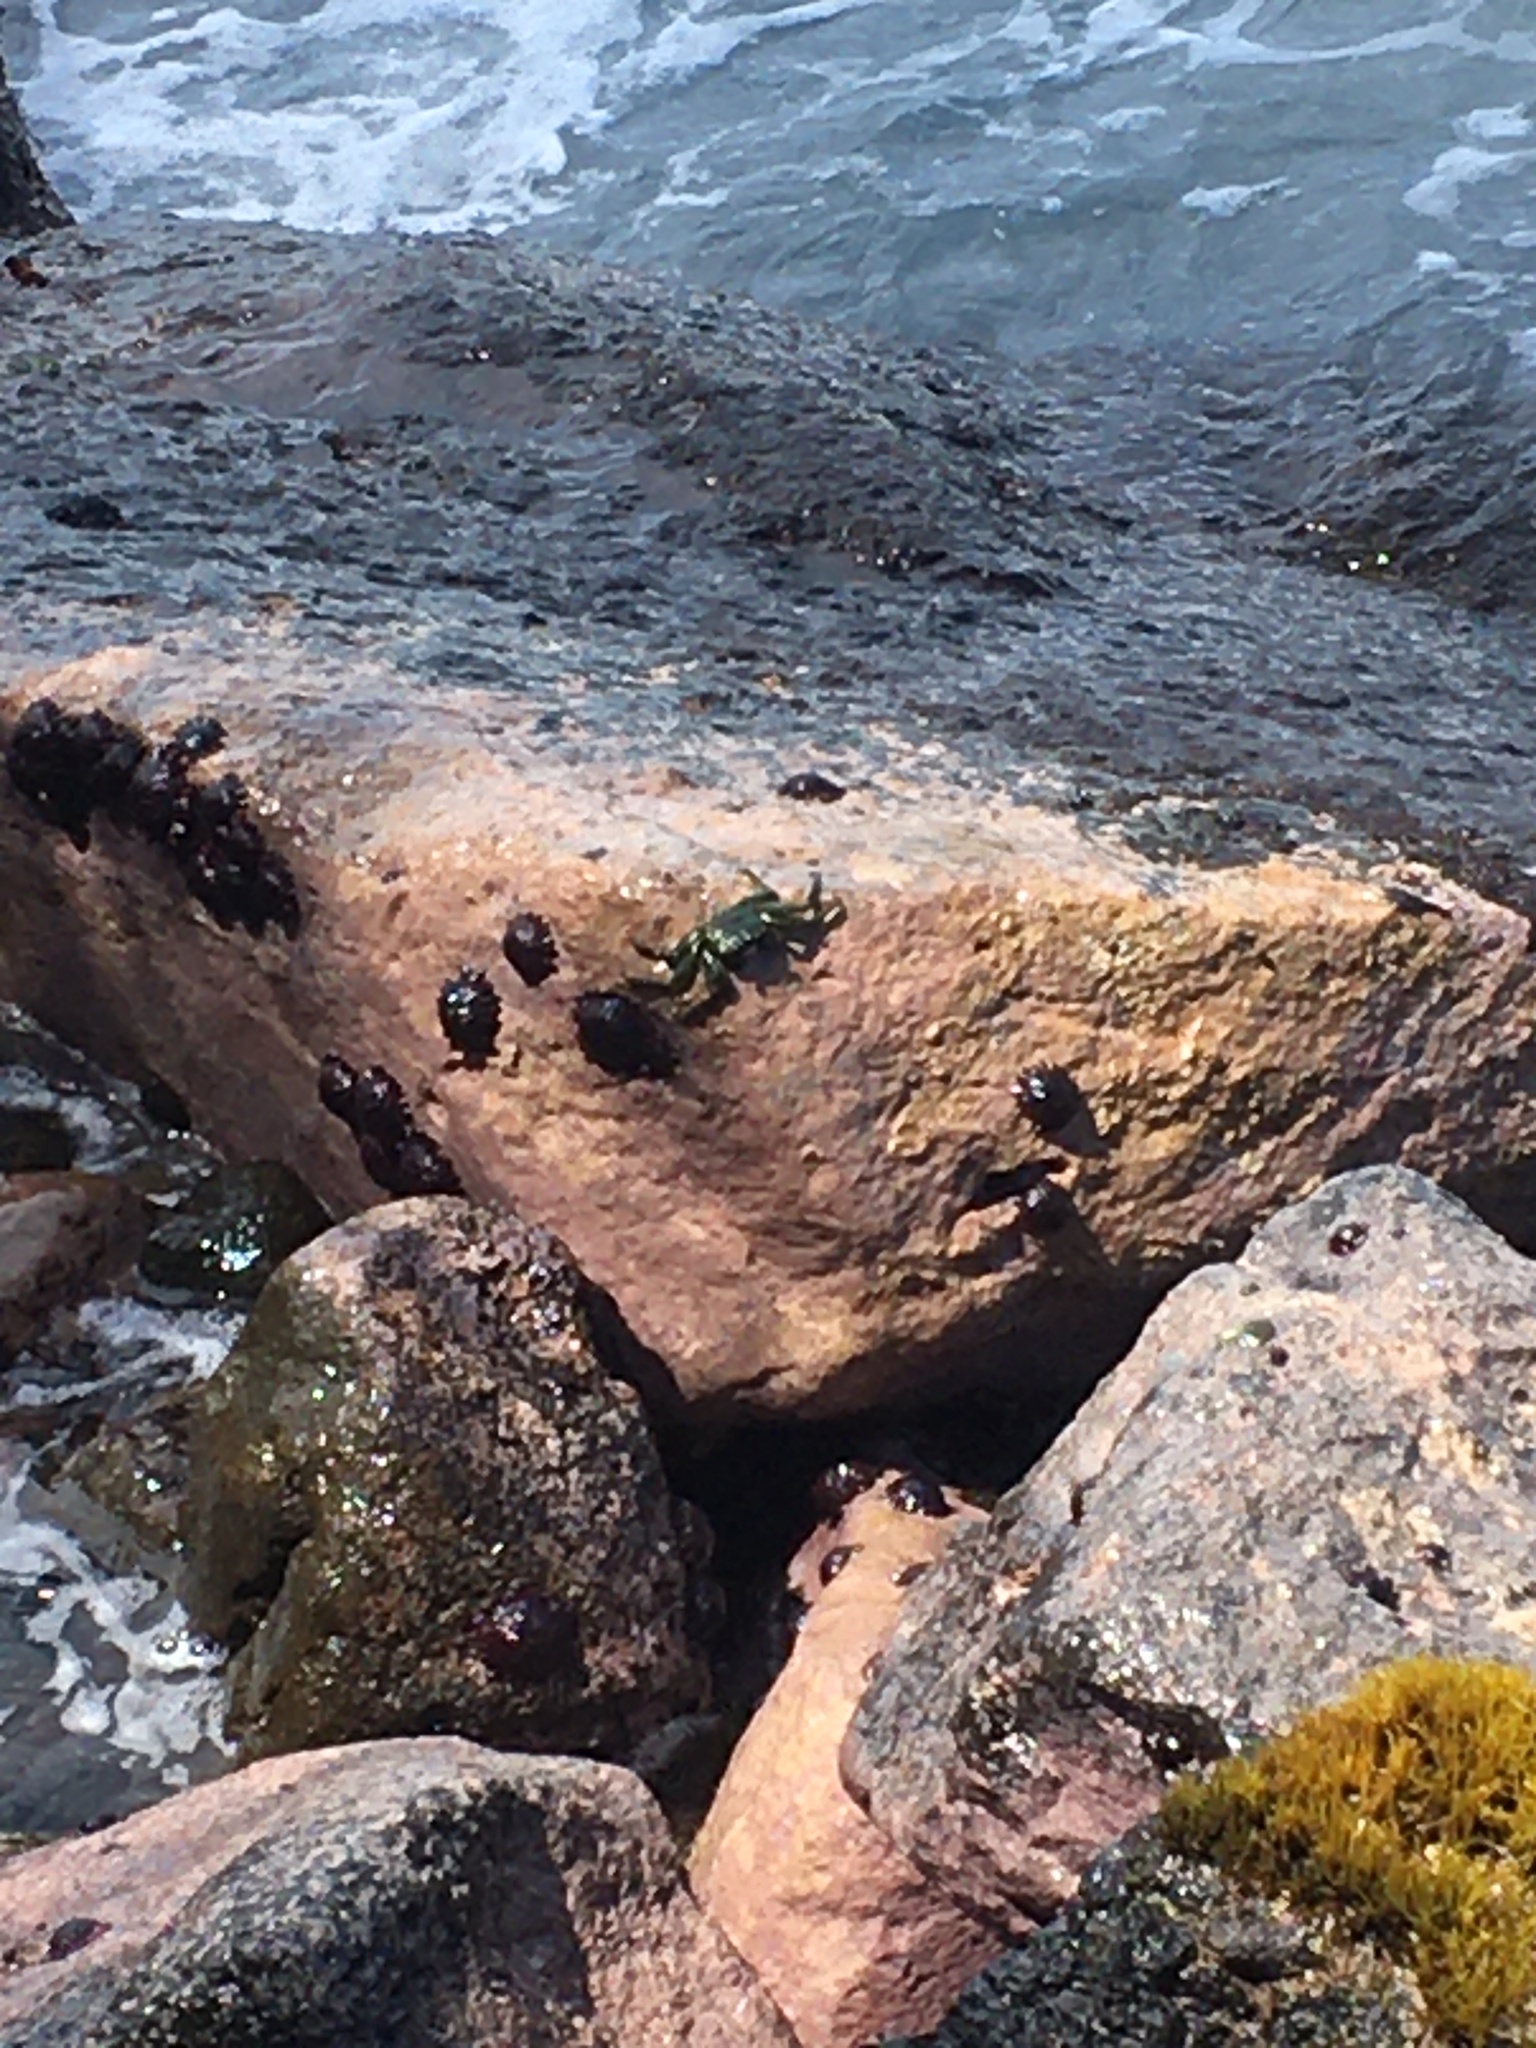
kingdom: Animalia
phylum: Arthropoda
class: Malacostraca
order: Decapoda
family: Grapsidae
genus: Grapsus
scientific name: Grapsus tenuicrustatus
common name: Natal lightfoot crab
